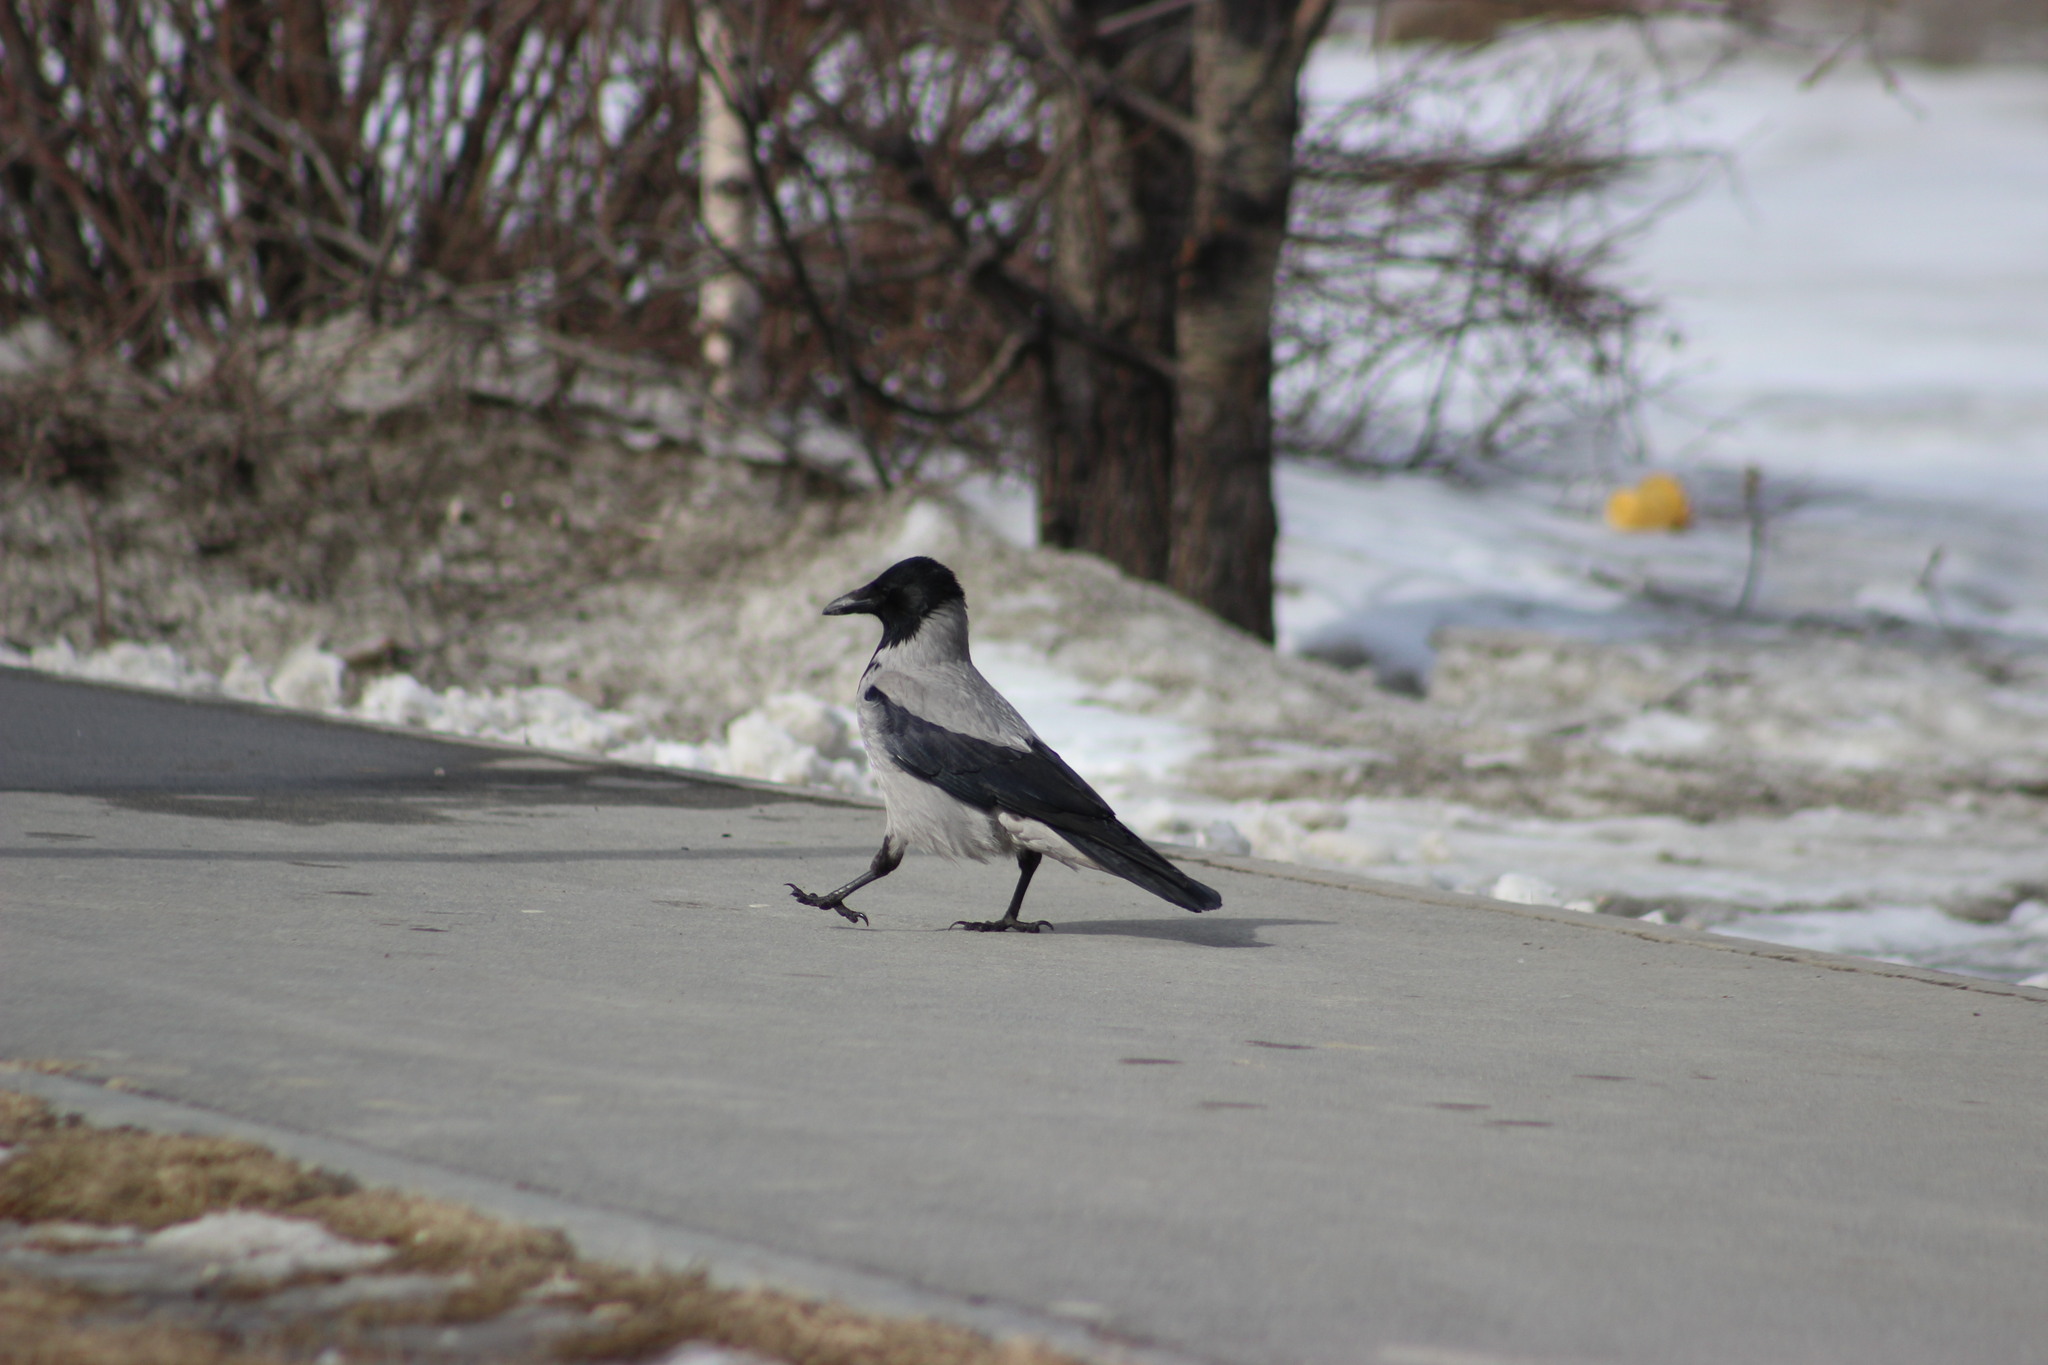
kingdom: Animalia
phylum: Chordata
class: Aves
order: Passeriformes
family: Corvidae
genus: Corvus
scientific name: Corvus cornix
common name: Hooded crow
